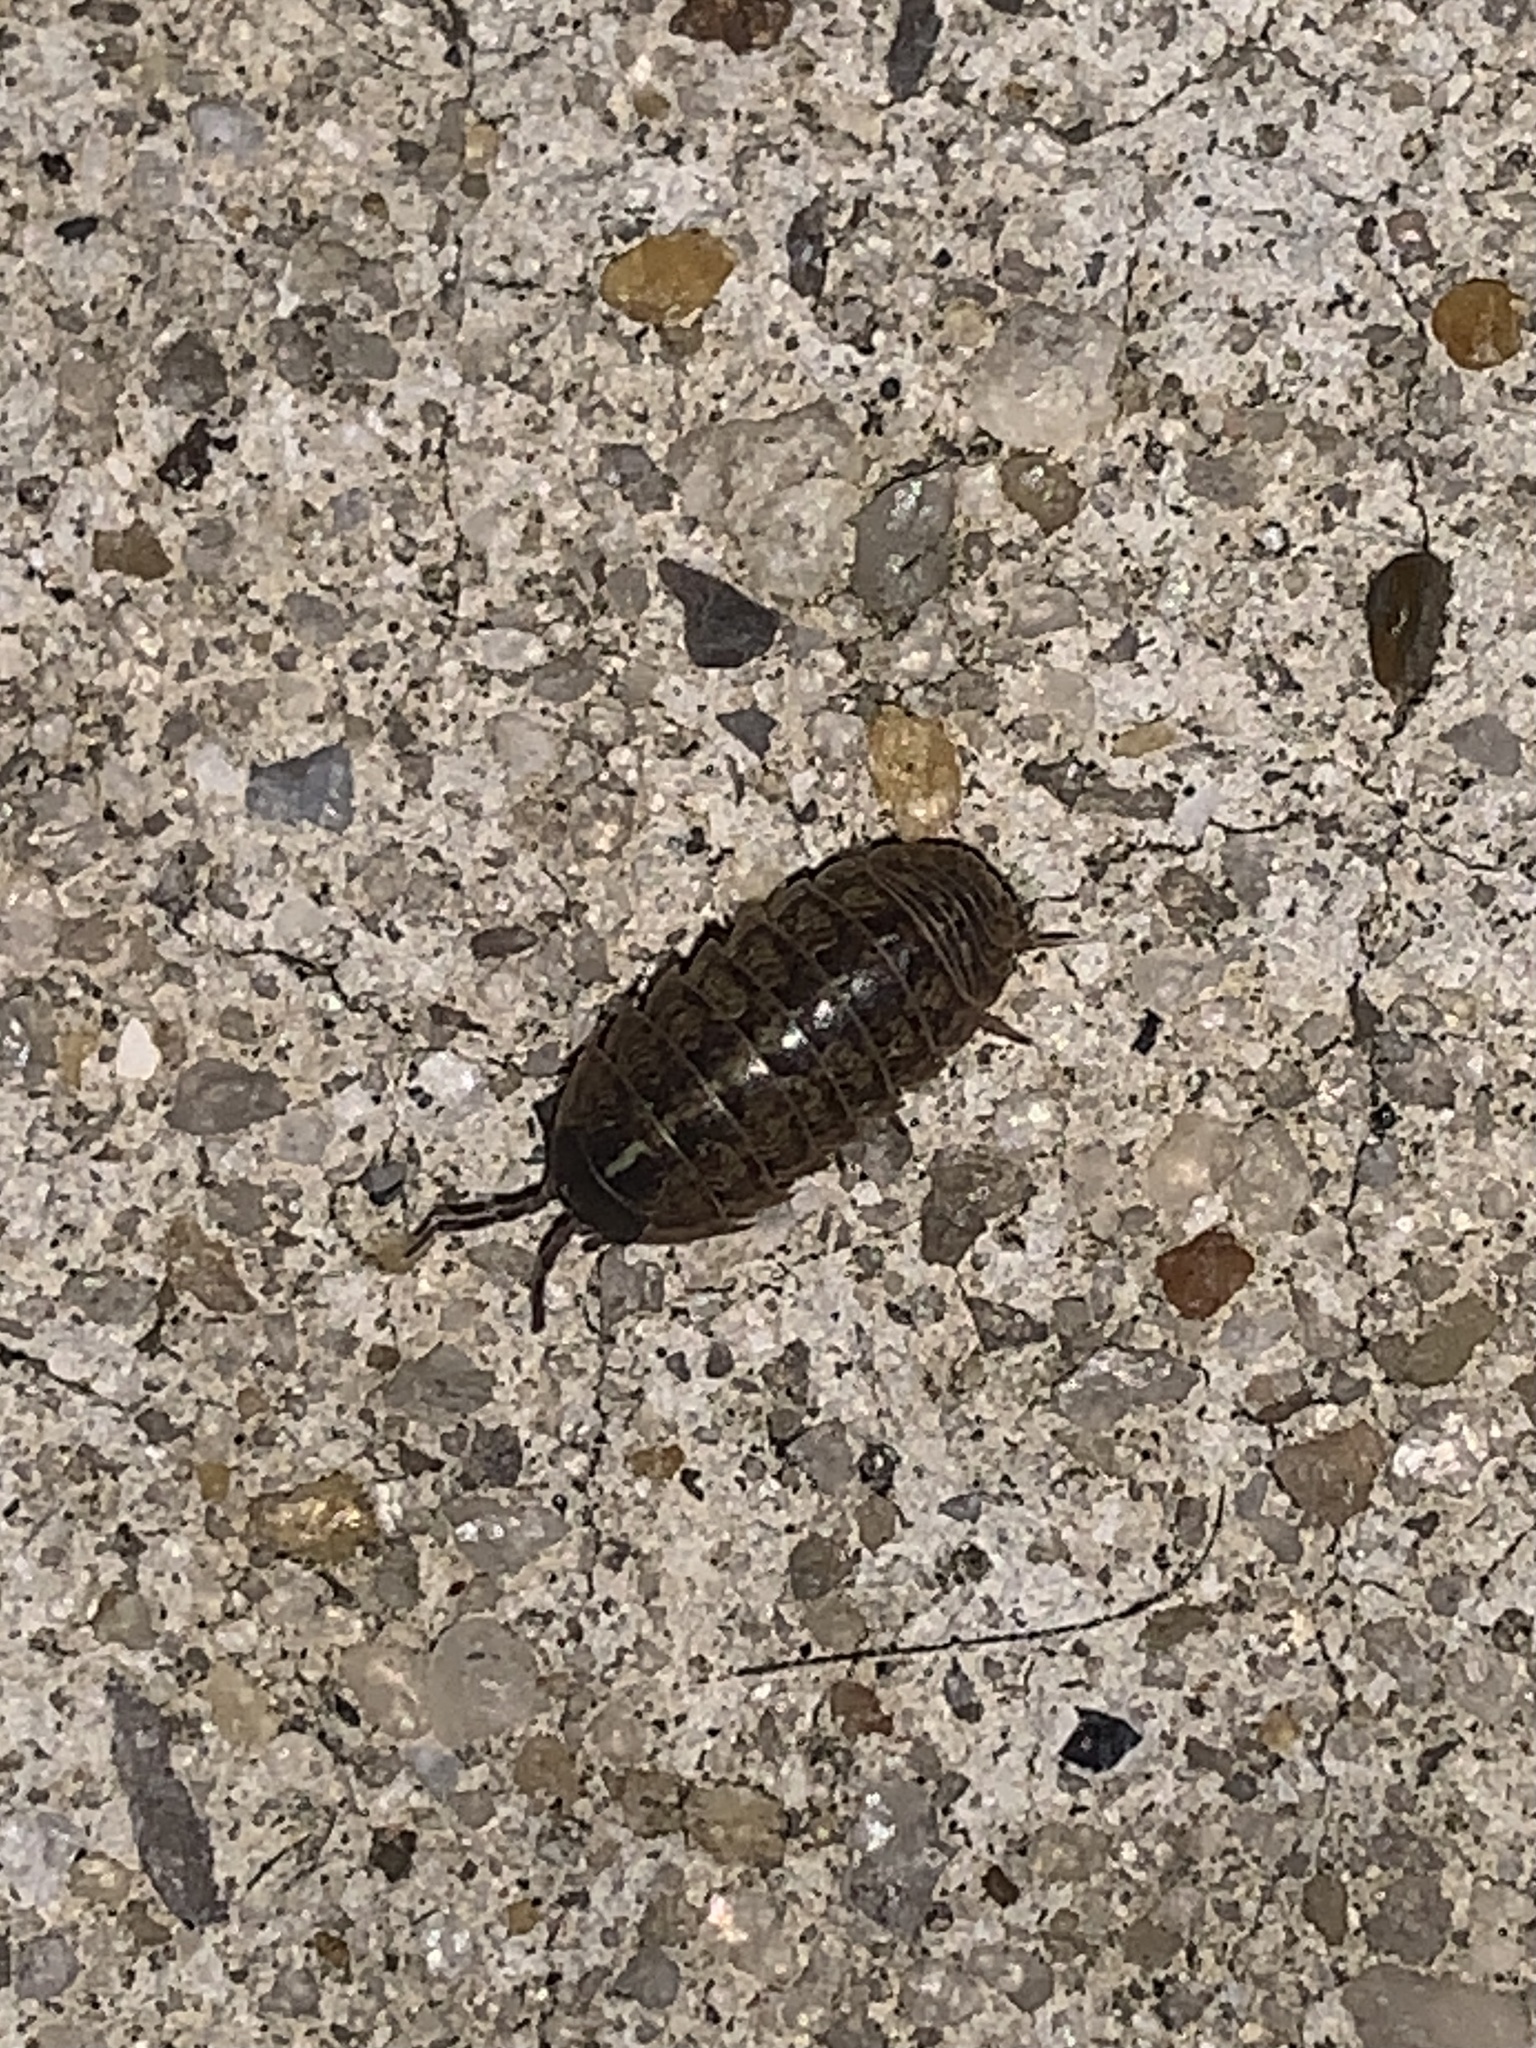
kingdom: Animalia
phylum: Arthropoda
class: Malacostraca
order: Isopoda
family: Armadillidiidae
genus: Armadillidium
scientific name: Armadillidium vulgare
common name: Common pill woodlouse
